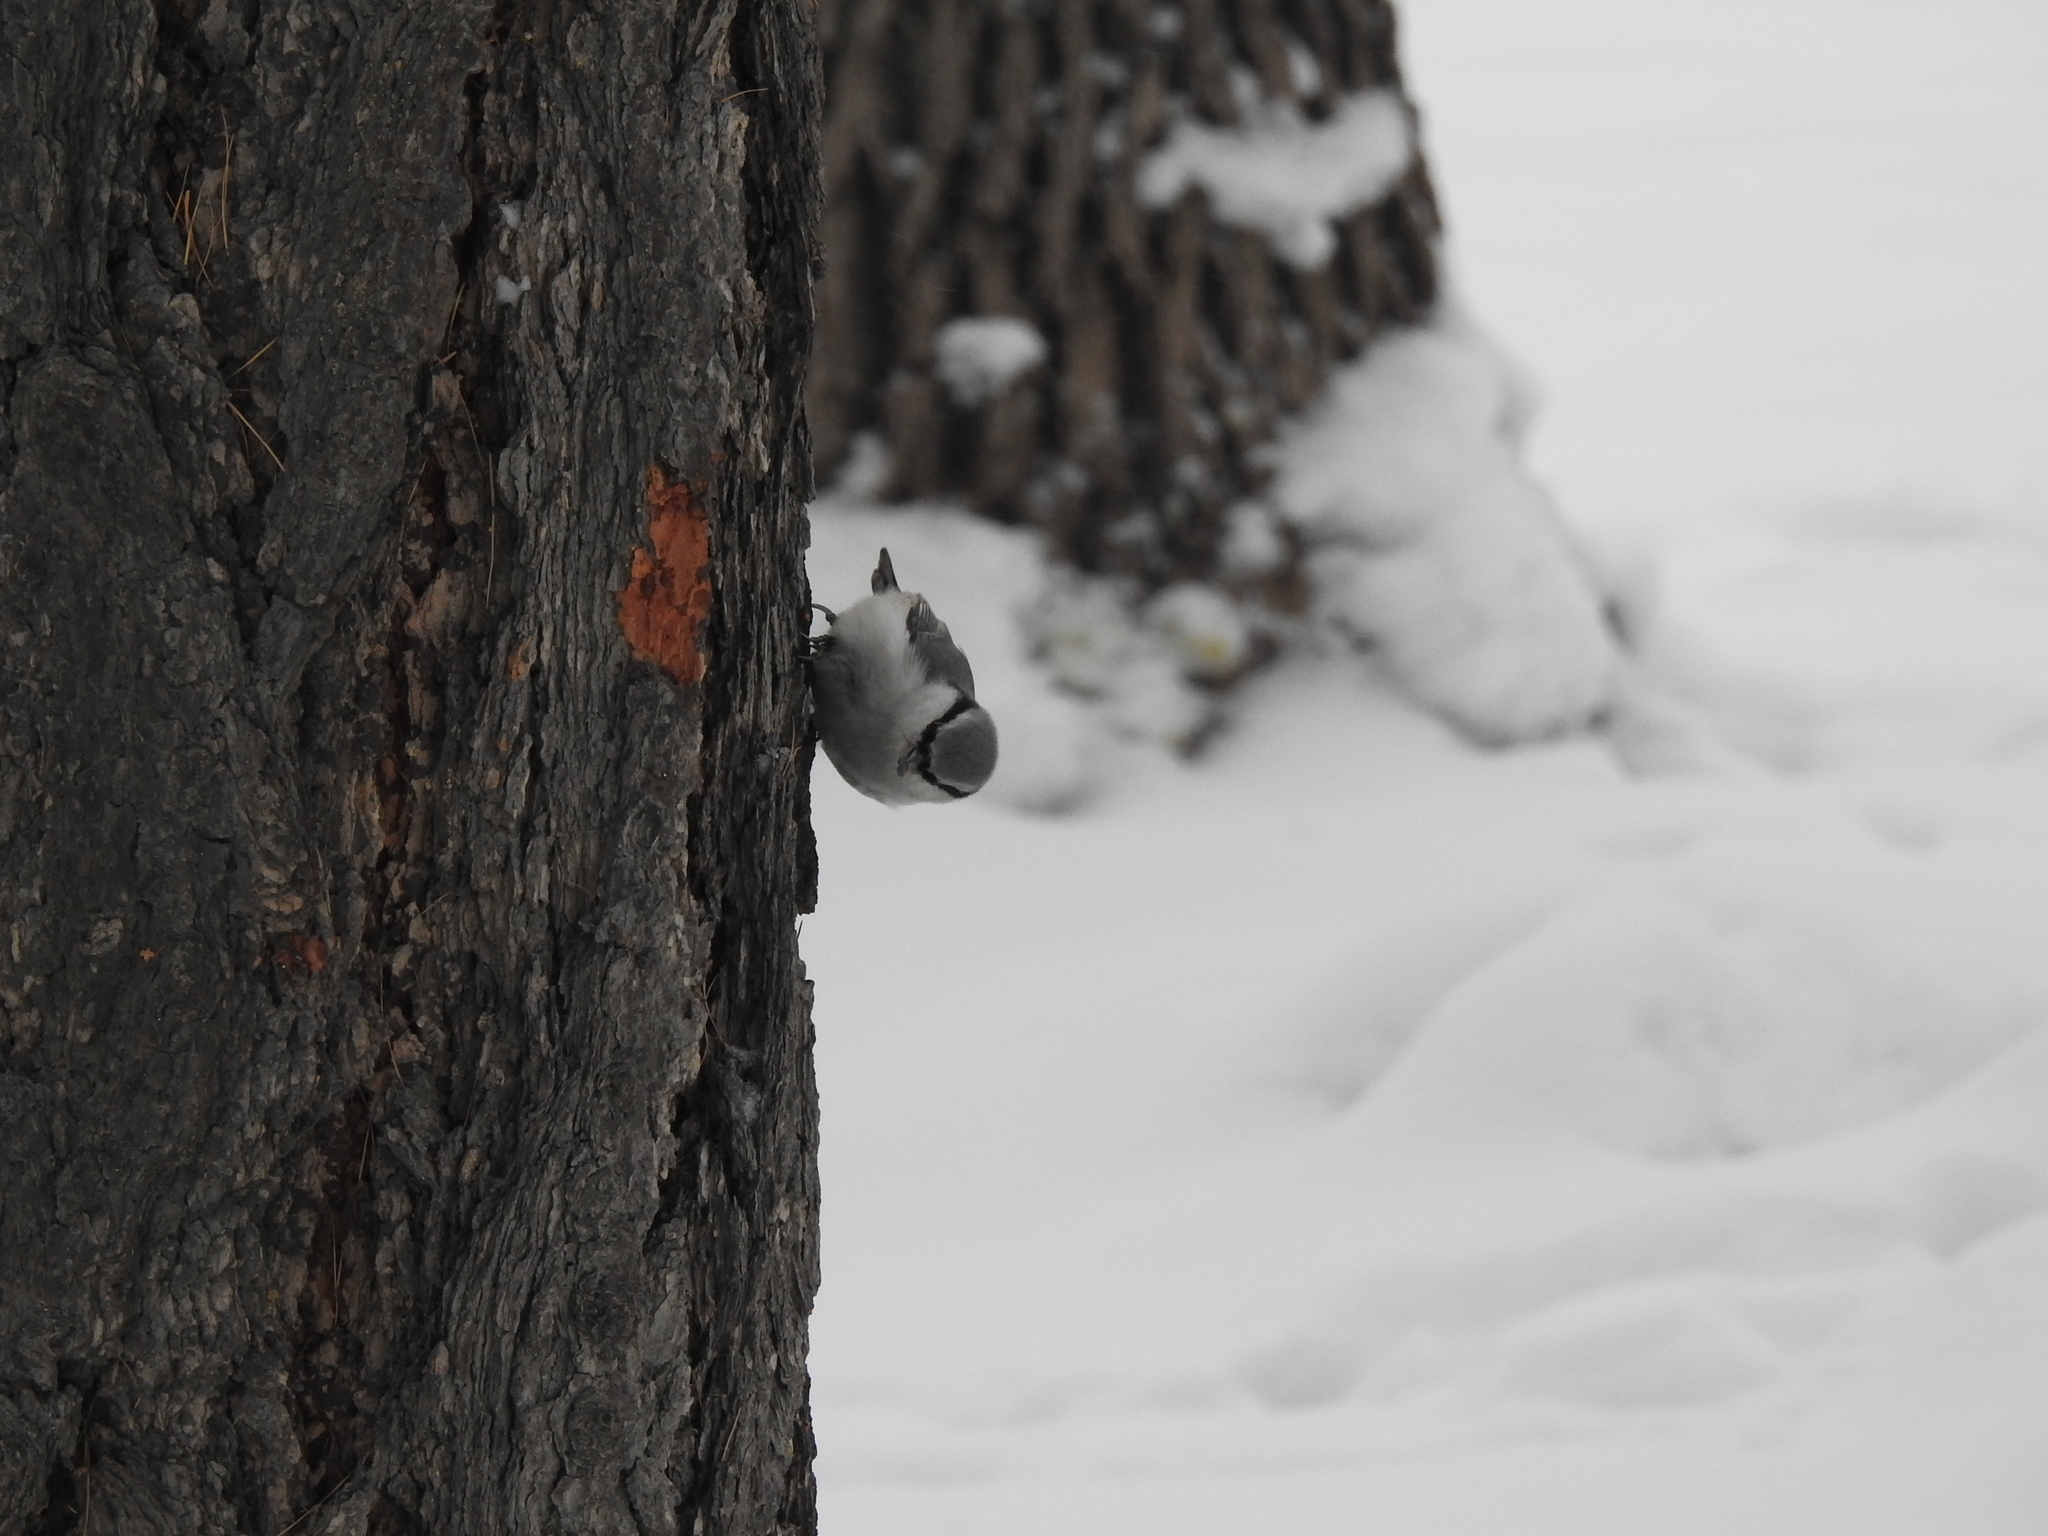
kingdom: Animalia
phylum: Chordata
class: Aves
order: Passeriformes
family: Sittidae
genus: Sitta
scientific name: Sitta europaea
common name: Eurasian nuthatch
